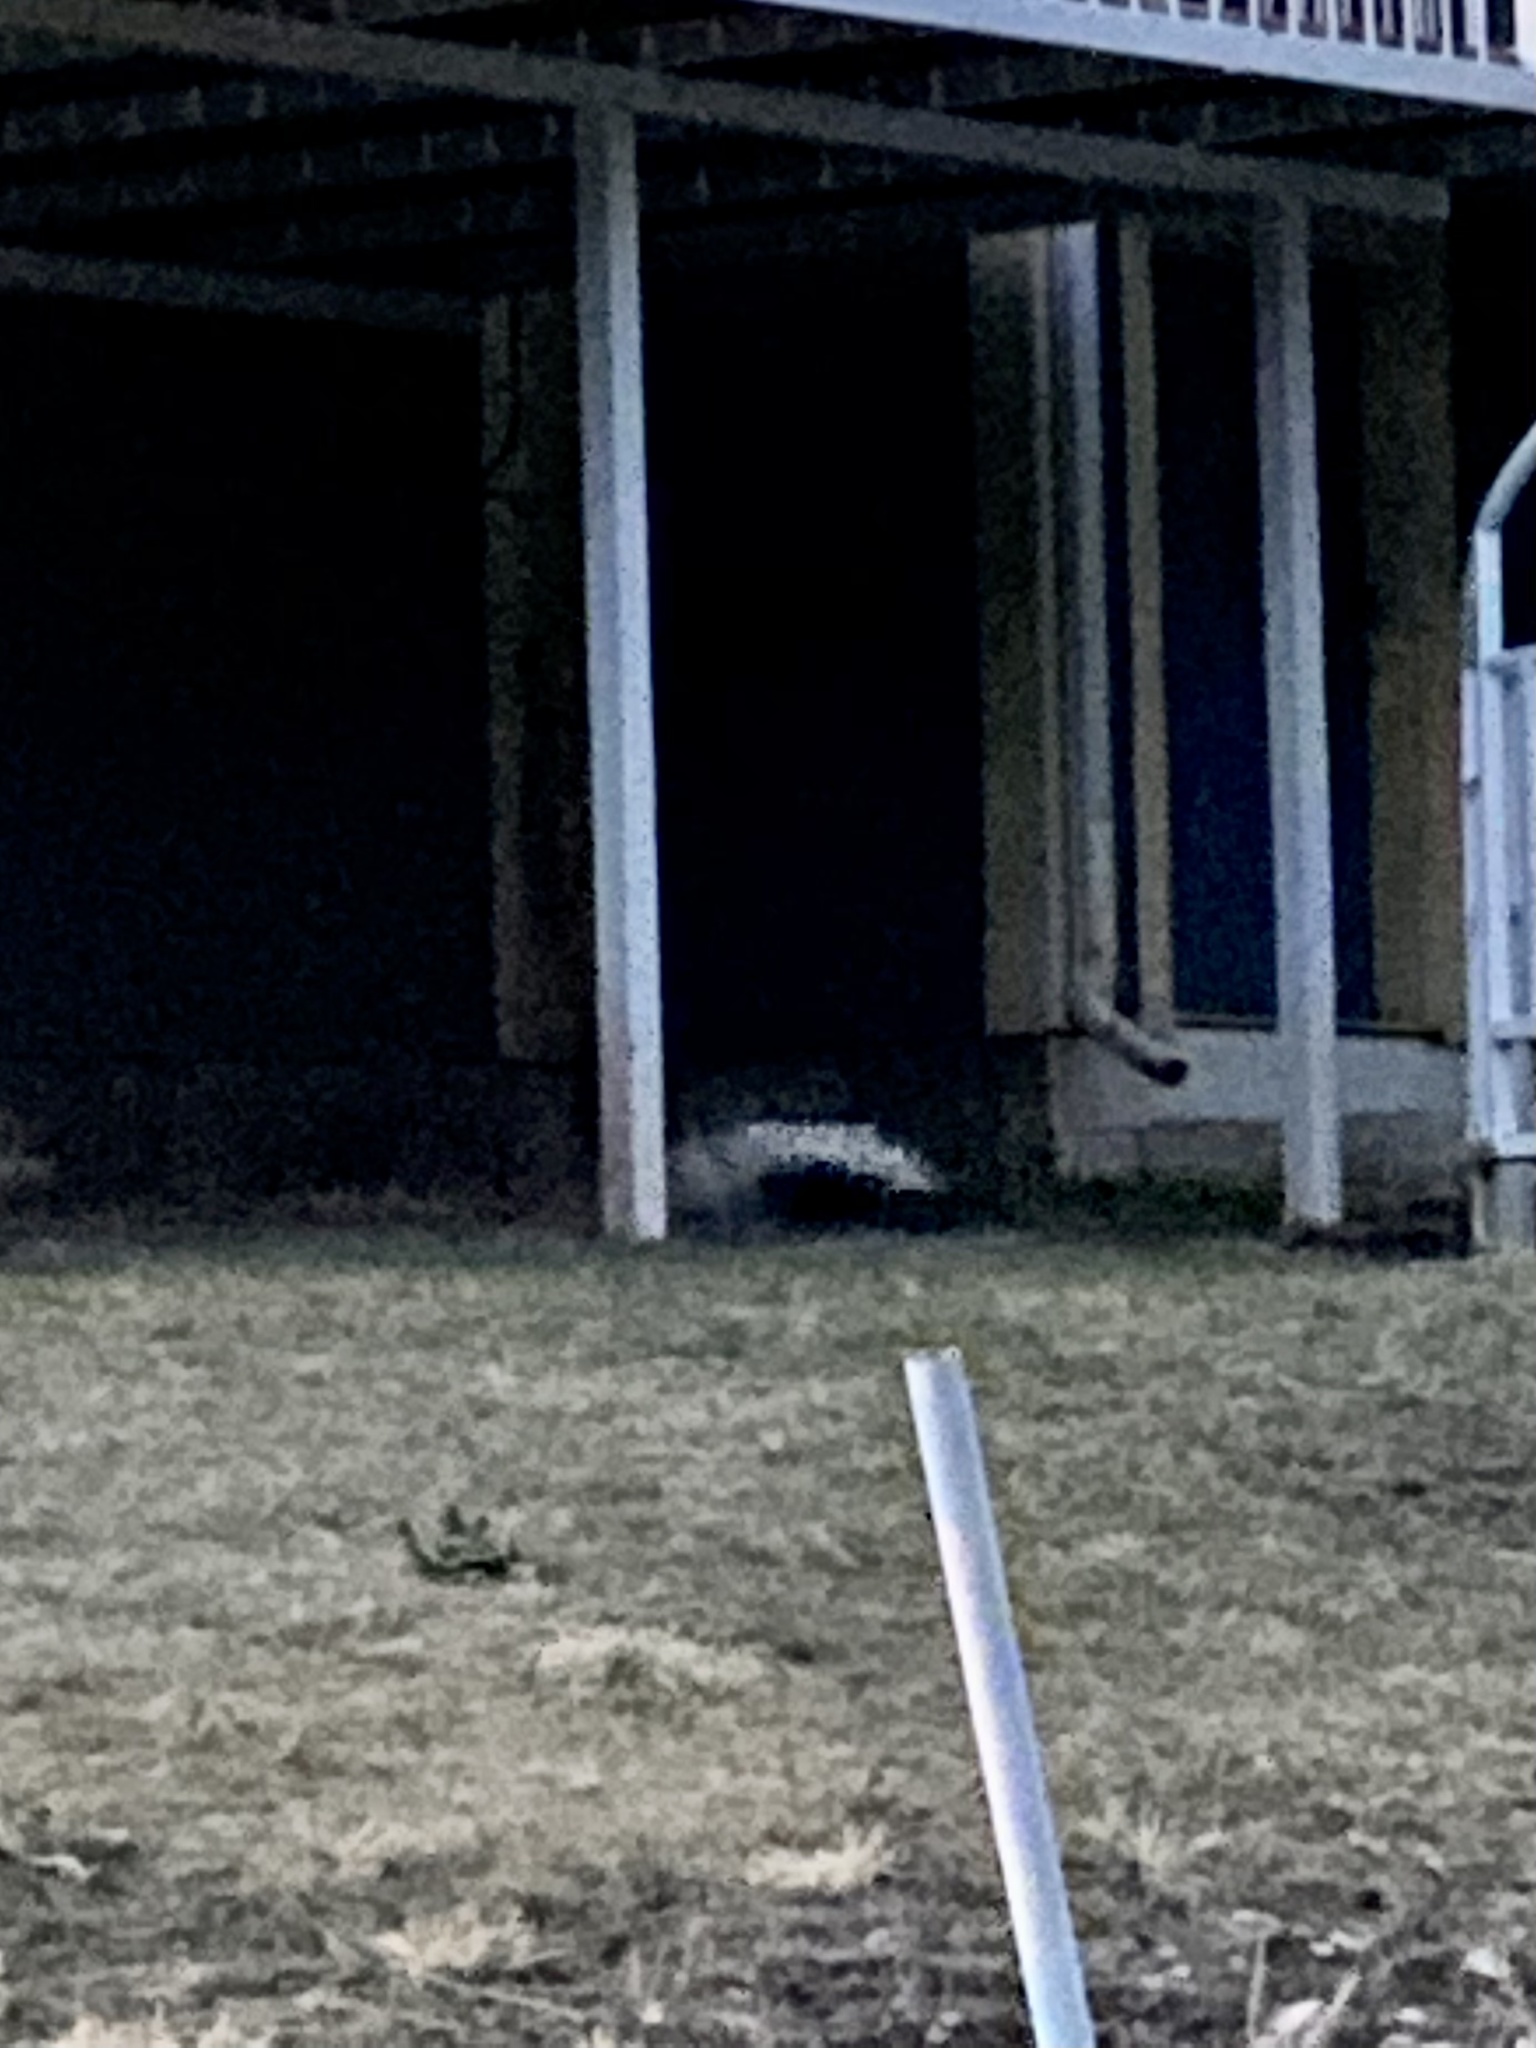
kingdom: Animalia
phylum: Chordata
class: Mammalia
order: Carnivora
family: Mephitidae
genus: Mephitis
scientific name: Mephitis mephitis
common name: Striped skunk
